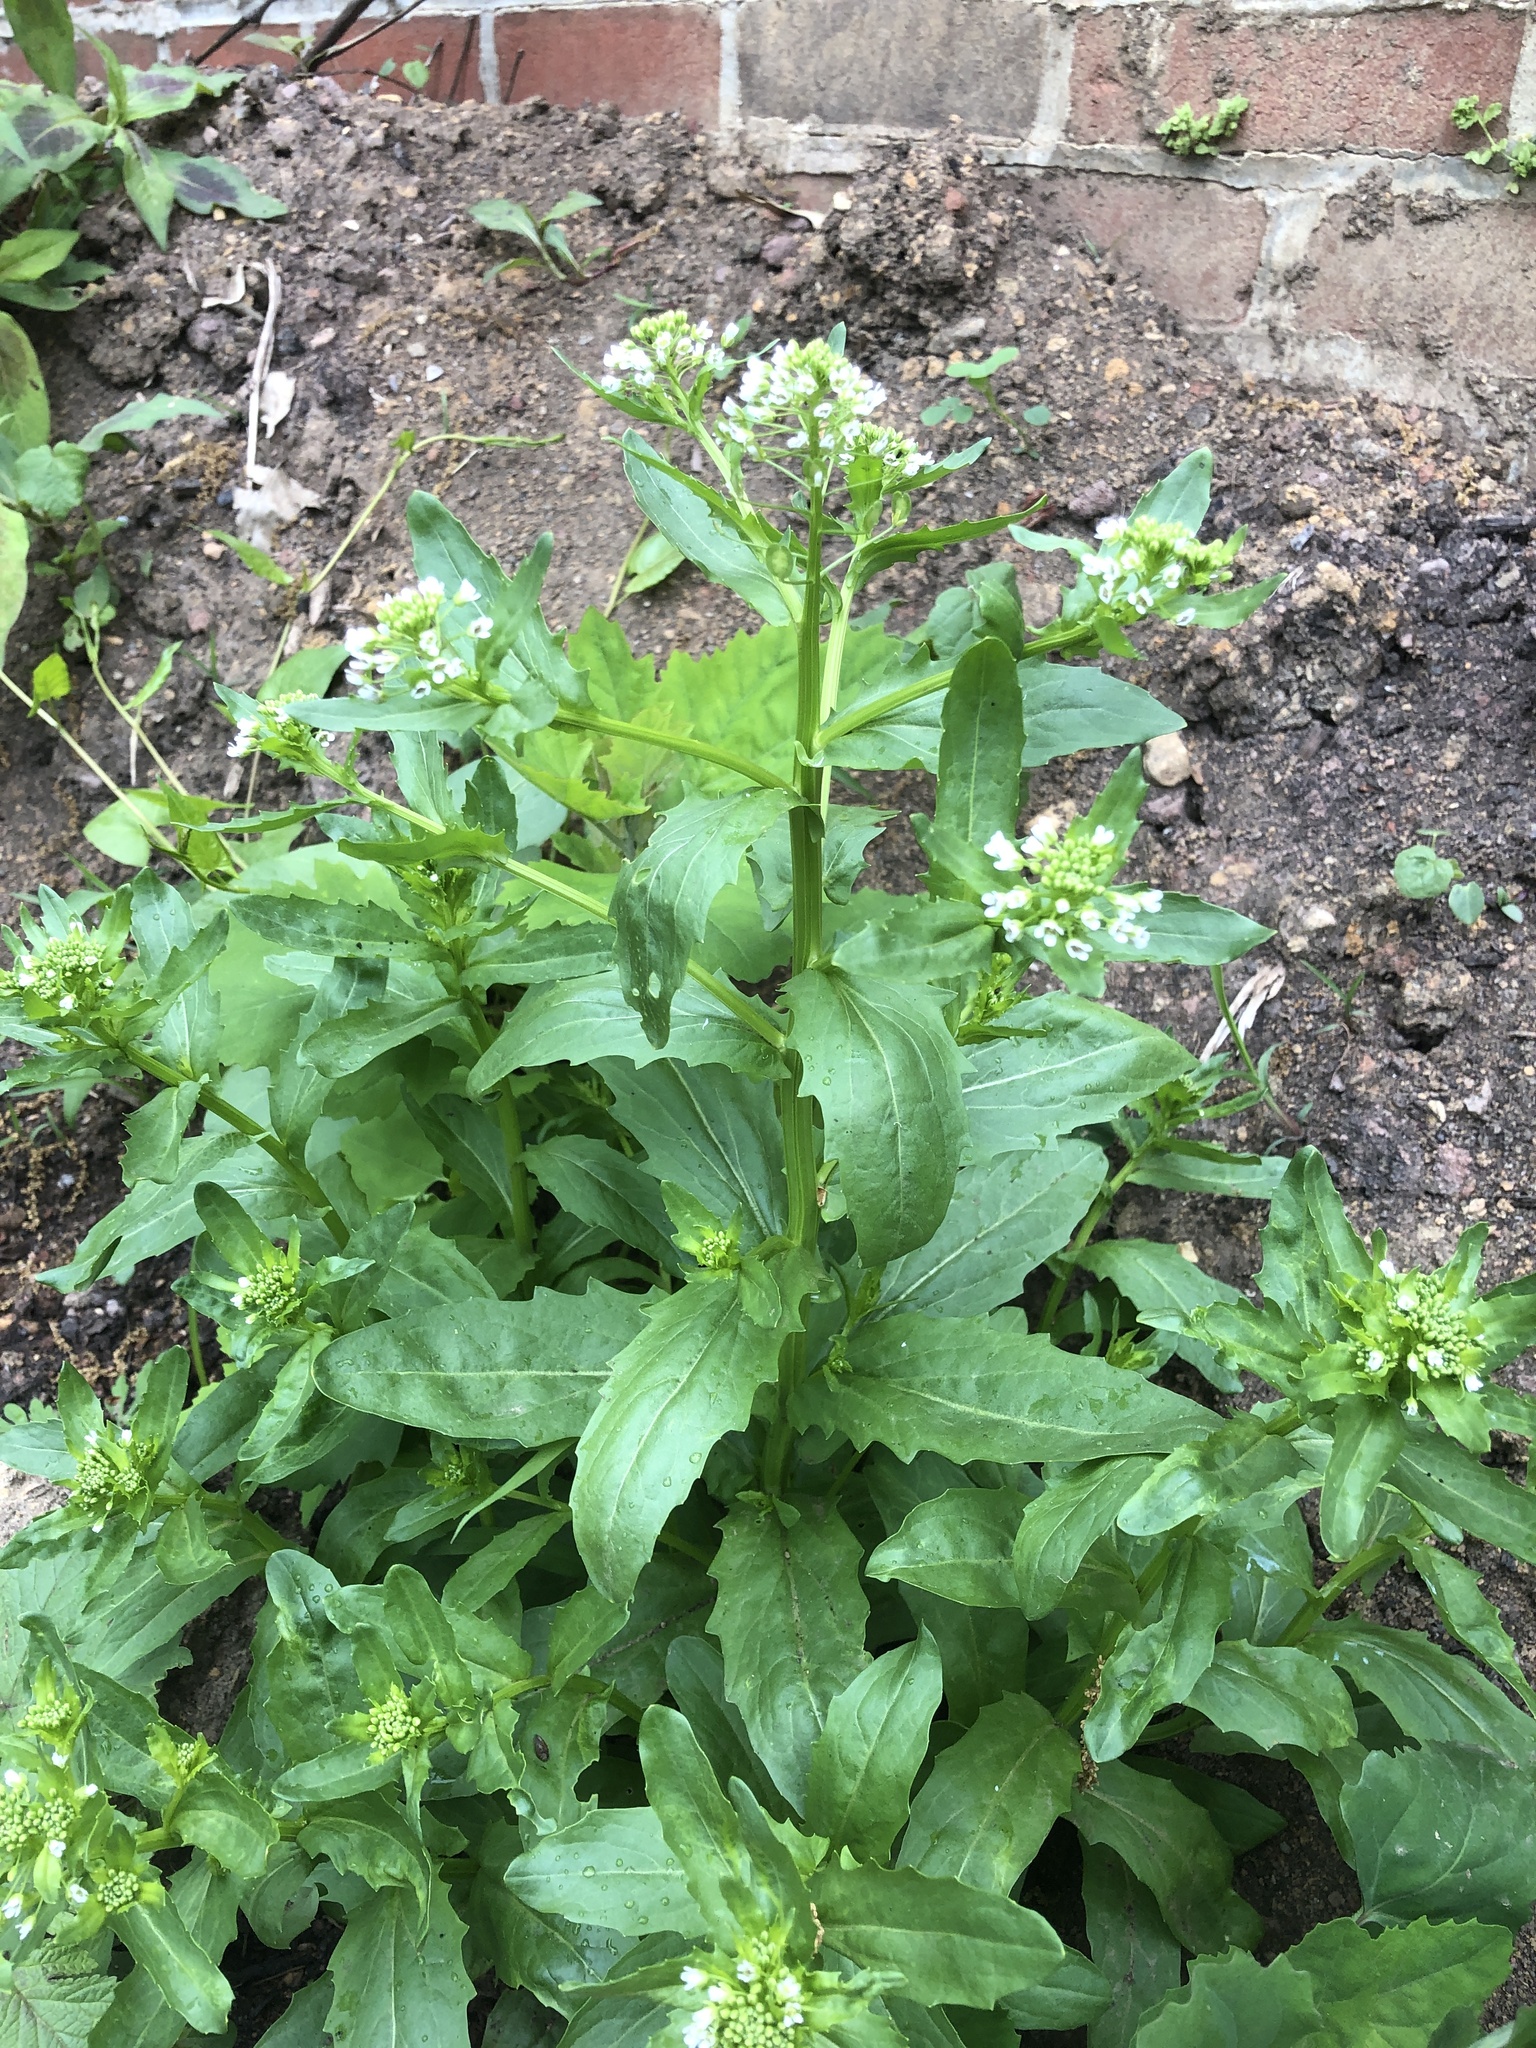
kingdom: Plantae
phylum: Tracheophyta
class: Magnoliopsida
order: Brassicales
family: Brassicaceae
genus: Thlaspi
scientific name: Thlaspi arvense
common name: Field pennycress
